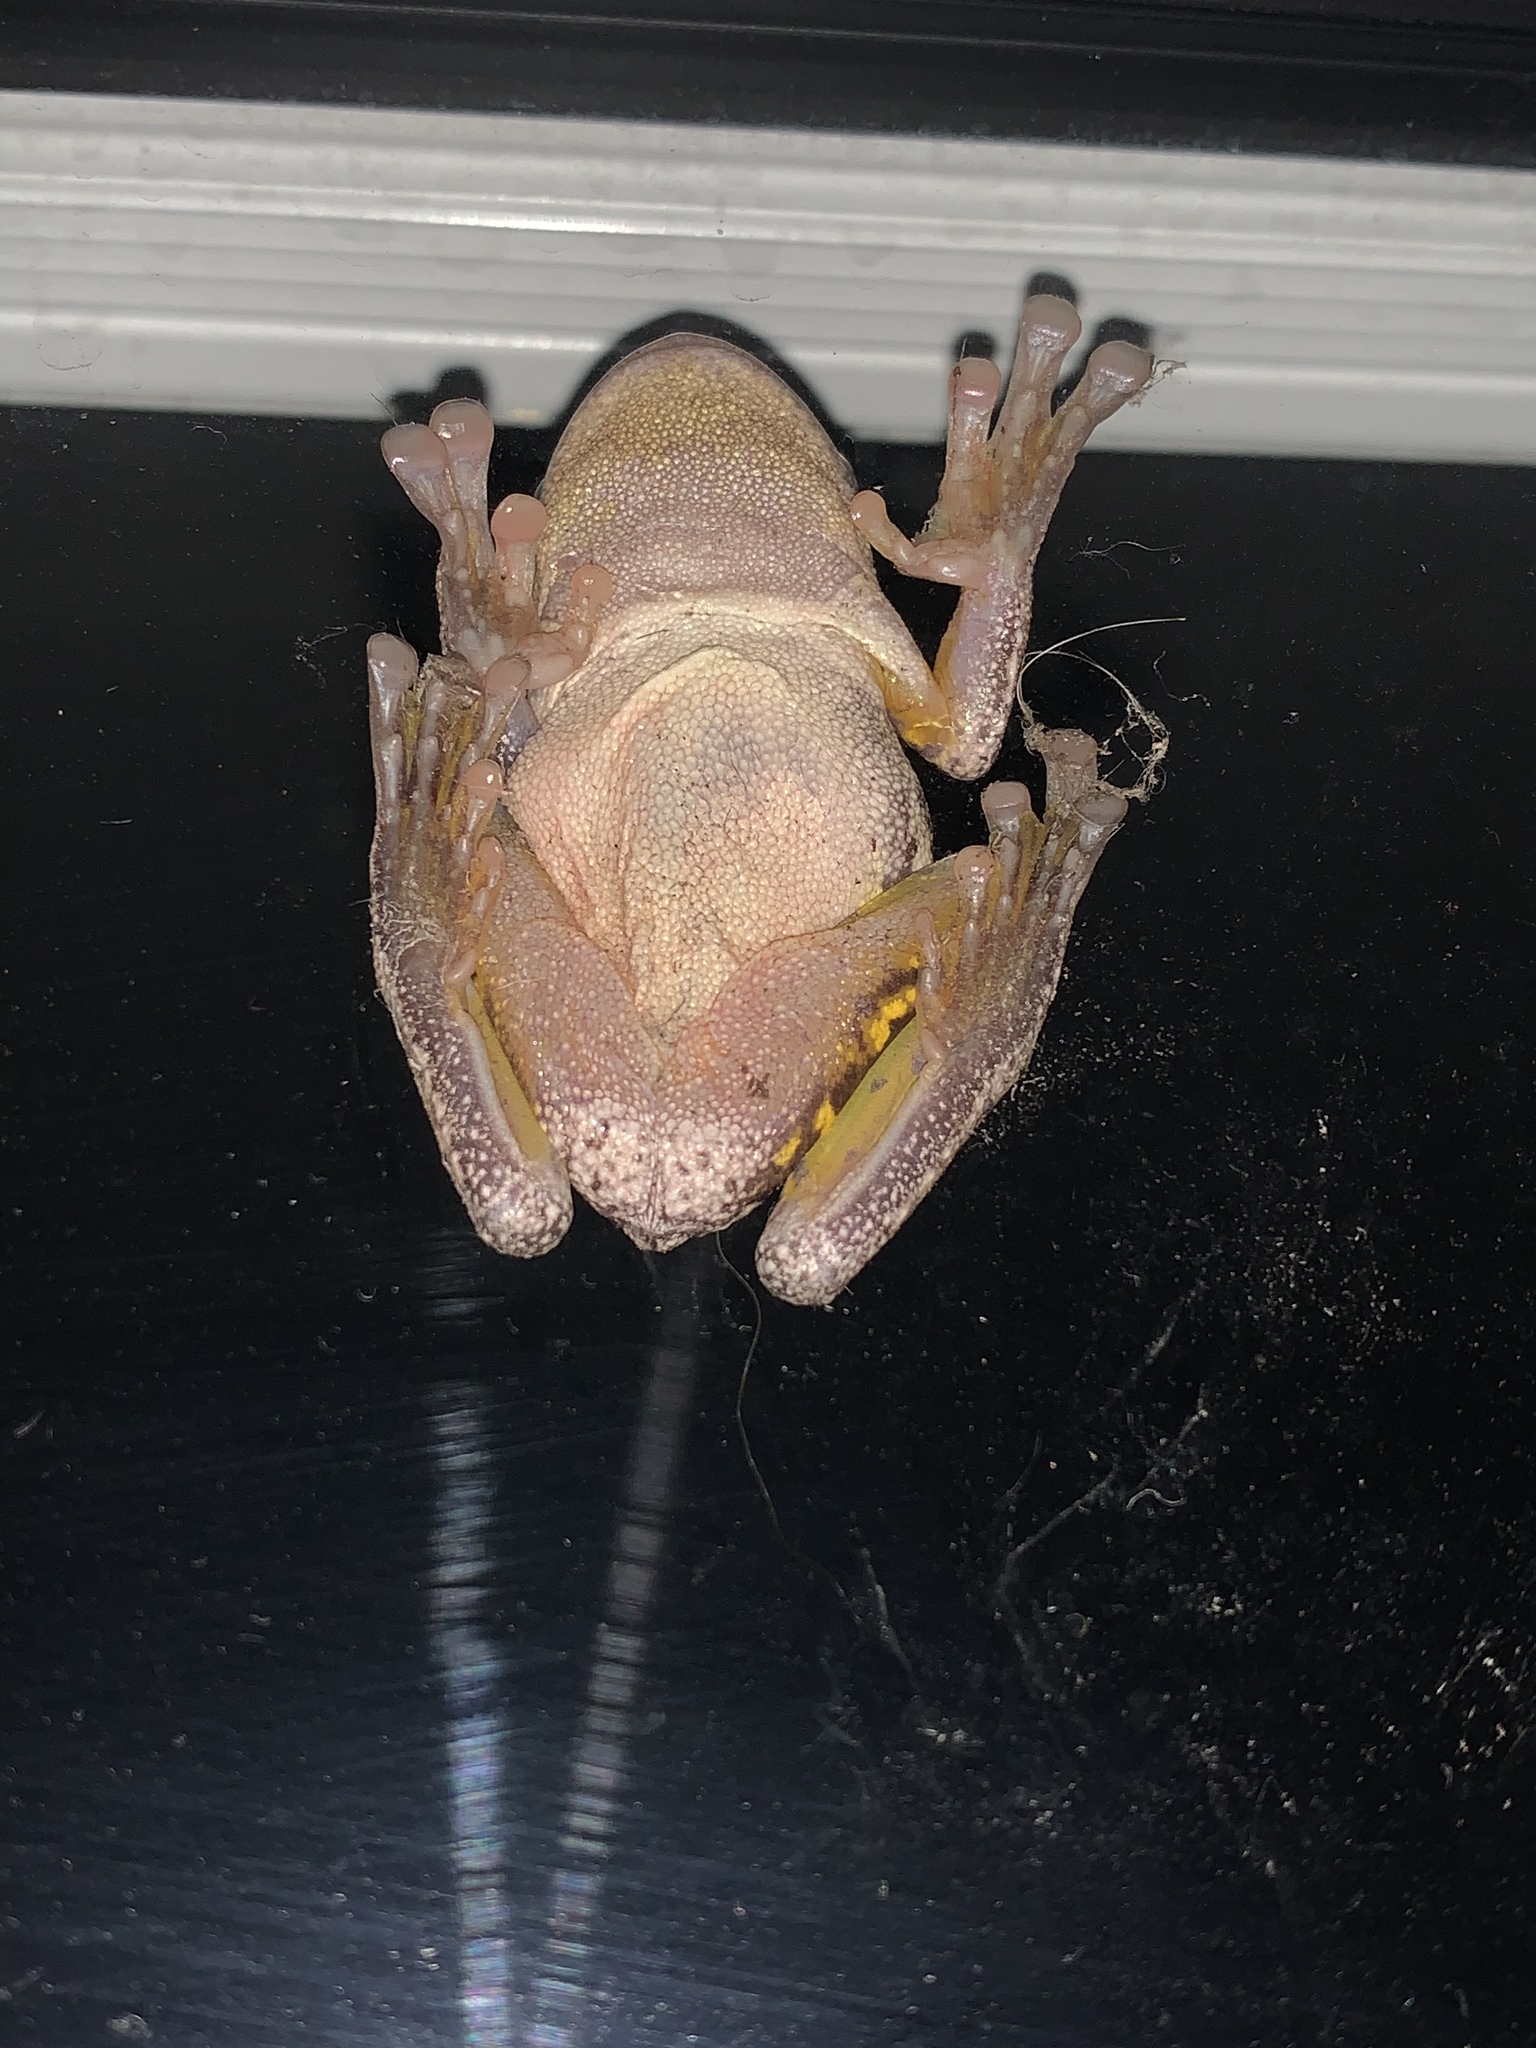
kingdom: Animalia
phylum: Chordata
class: Amphibia
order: Anura
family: Pelodryadidae
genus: Litoria
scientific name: Litoria peronii
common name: Emerald spotted treefrog
